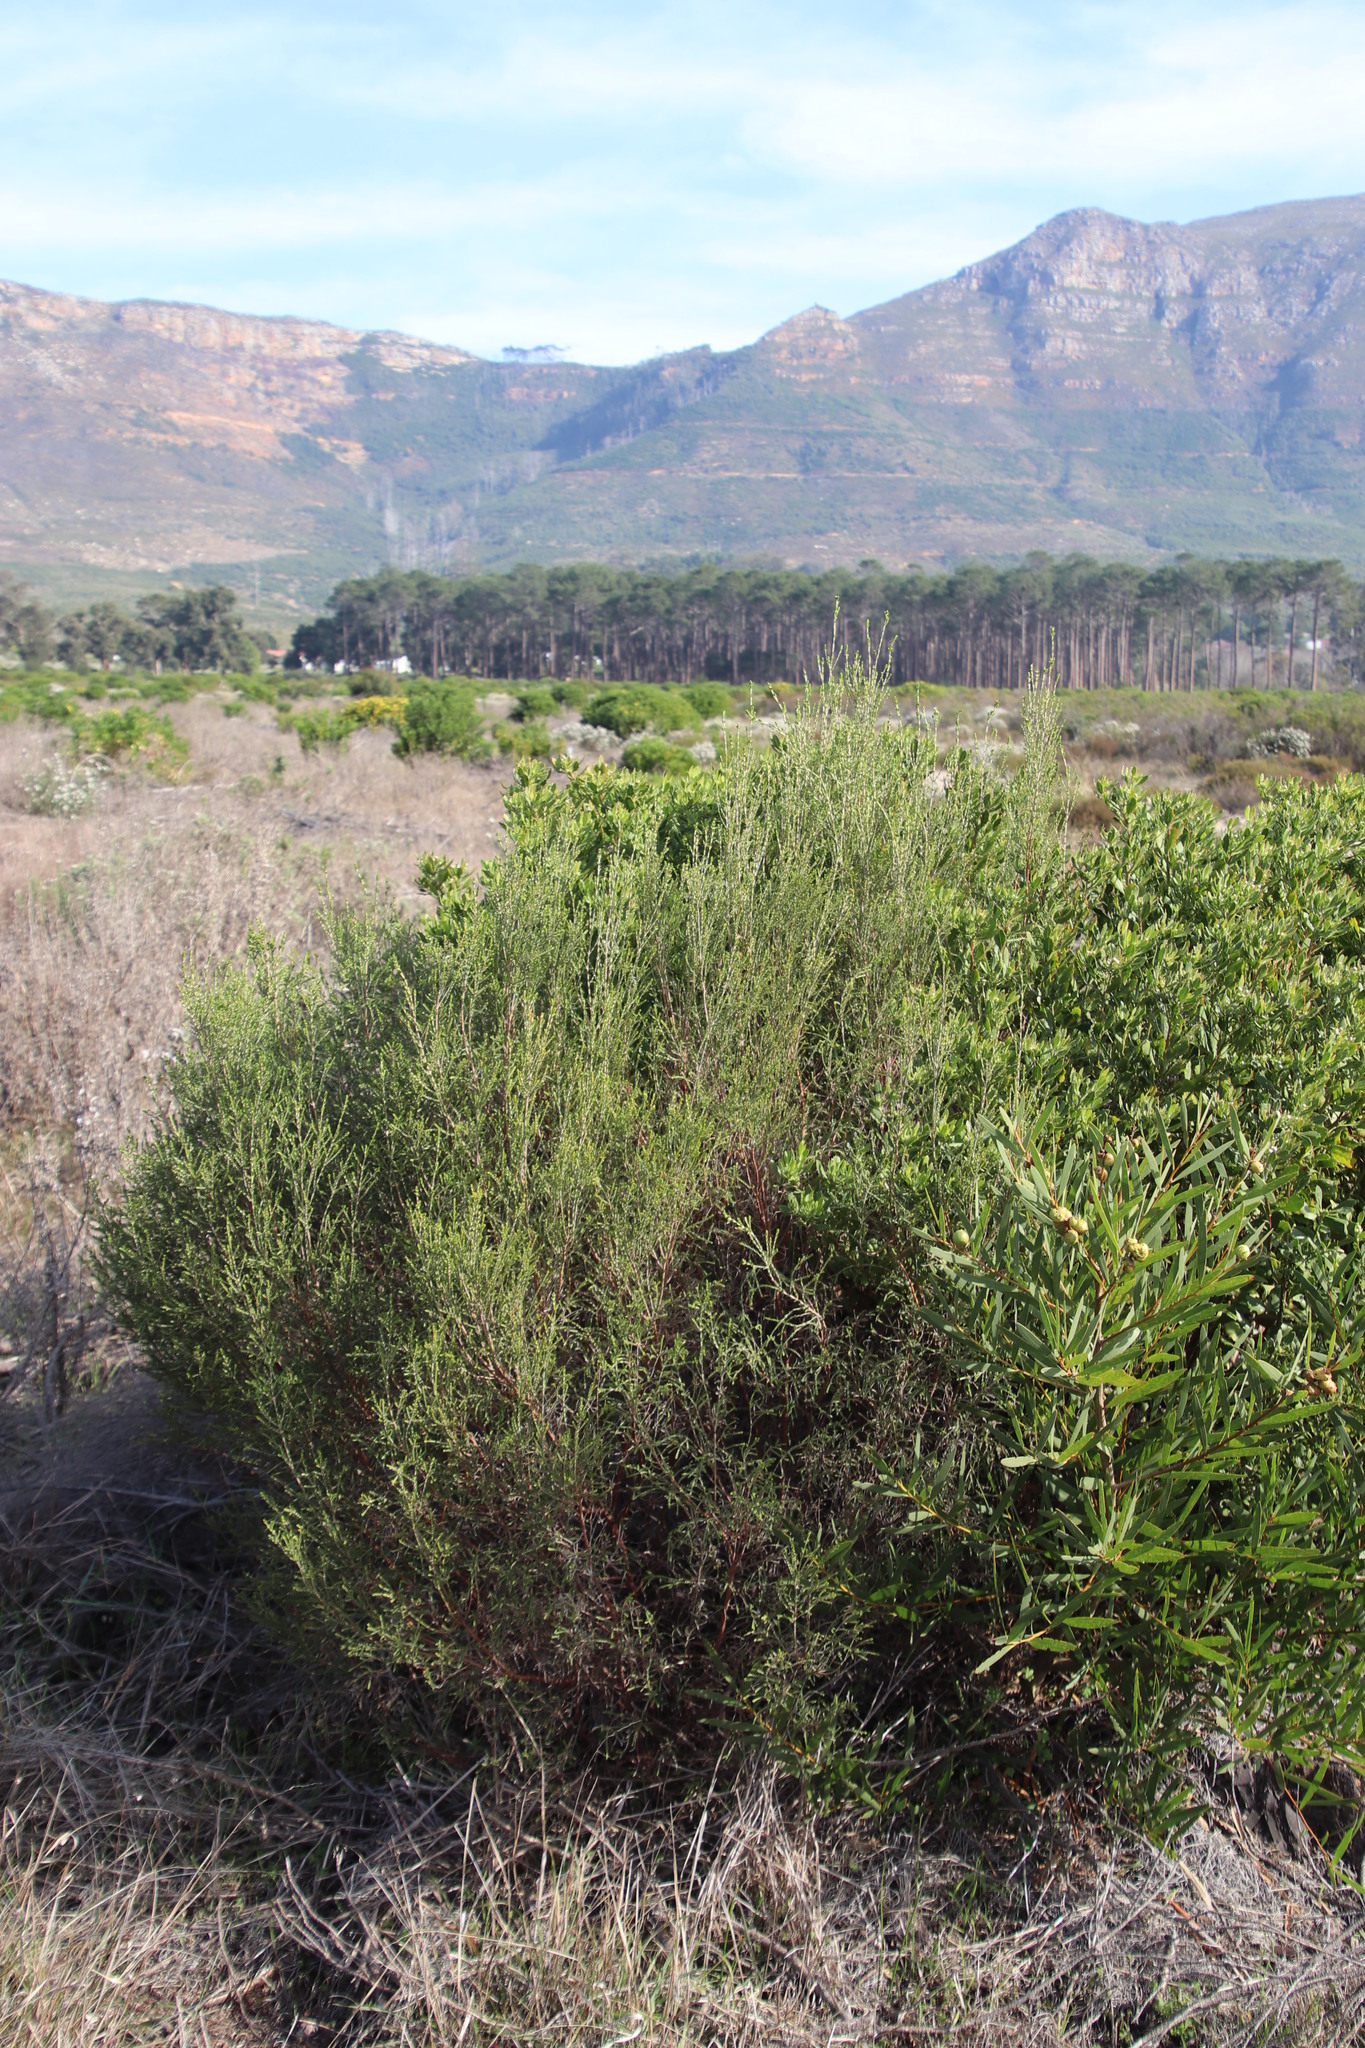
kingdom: Plantae
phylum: Tracheophyta
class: Magnoliopsida
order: Malvales
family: Thymelaeaceae
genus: Passerina
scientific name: Passerina corymbosa
